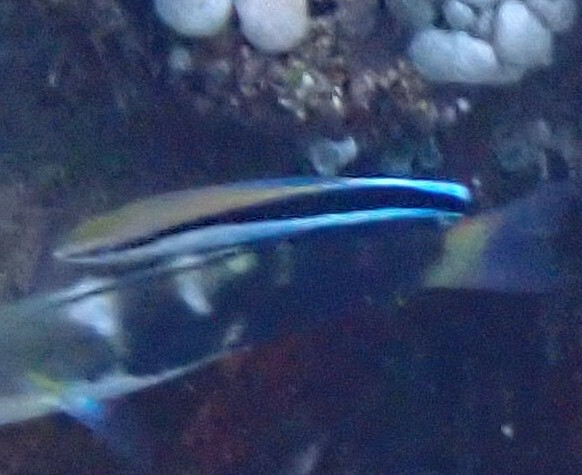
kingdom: Animalia
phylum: Chordata
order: Perciformes
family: Labridae
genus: Labroides
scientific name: Labroides dimidiatus
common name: Blue diesel wrasse
